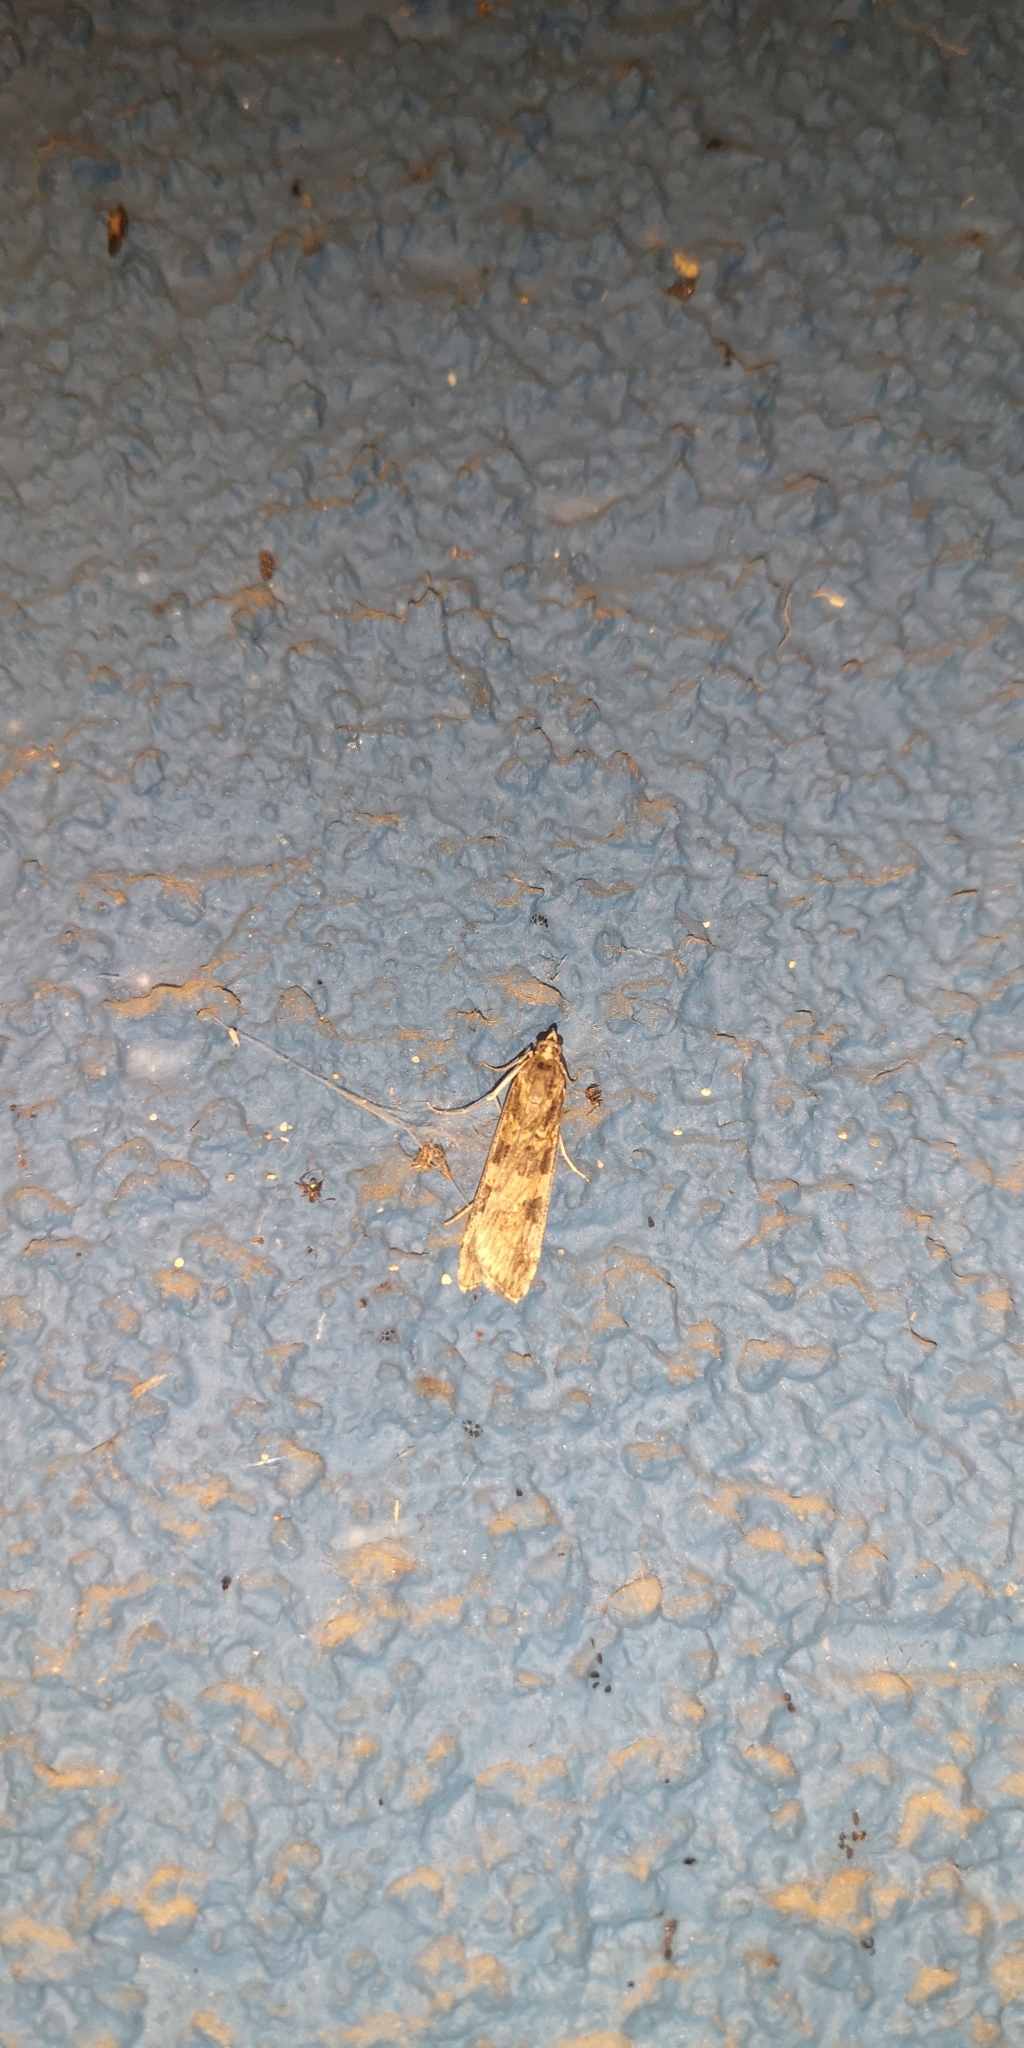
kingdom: Animalia
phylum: Arthropoda
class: Insecta
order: Lepidoptera
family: Crambidae
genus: Nomophila
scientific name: Nomophila distinctalis
